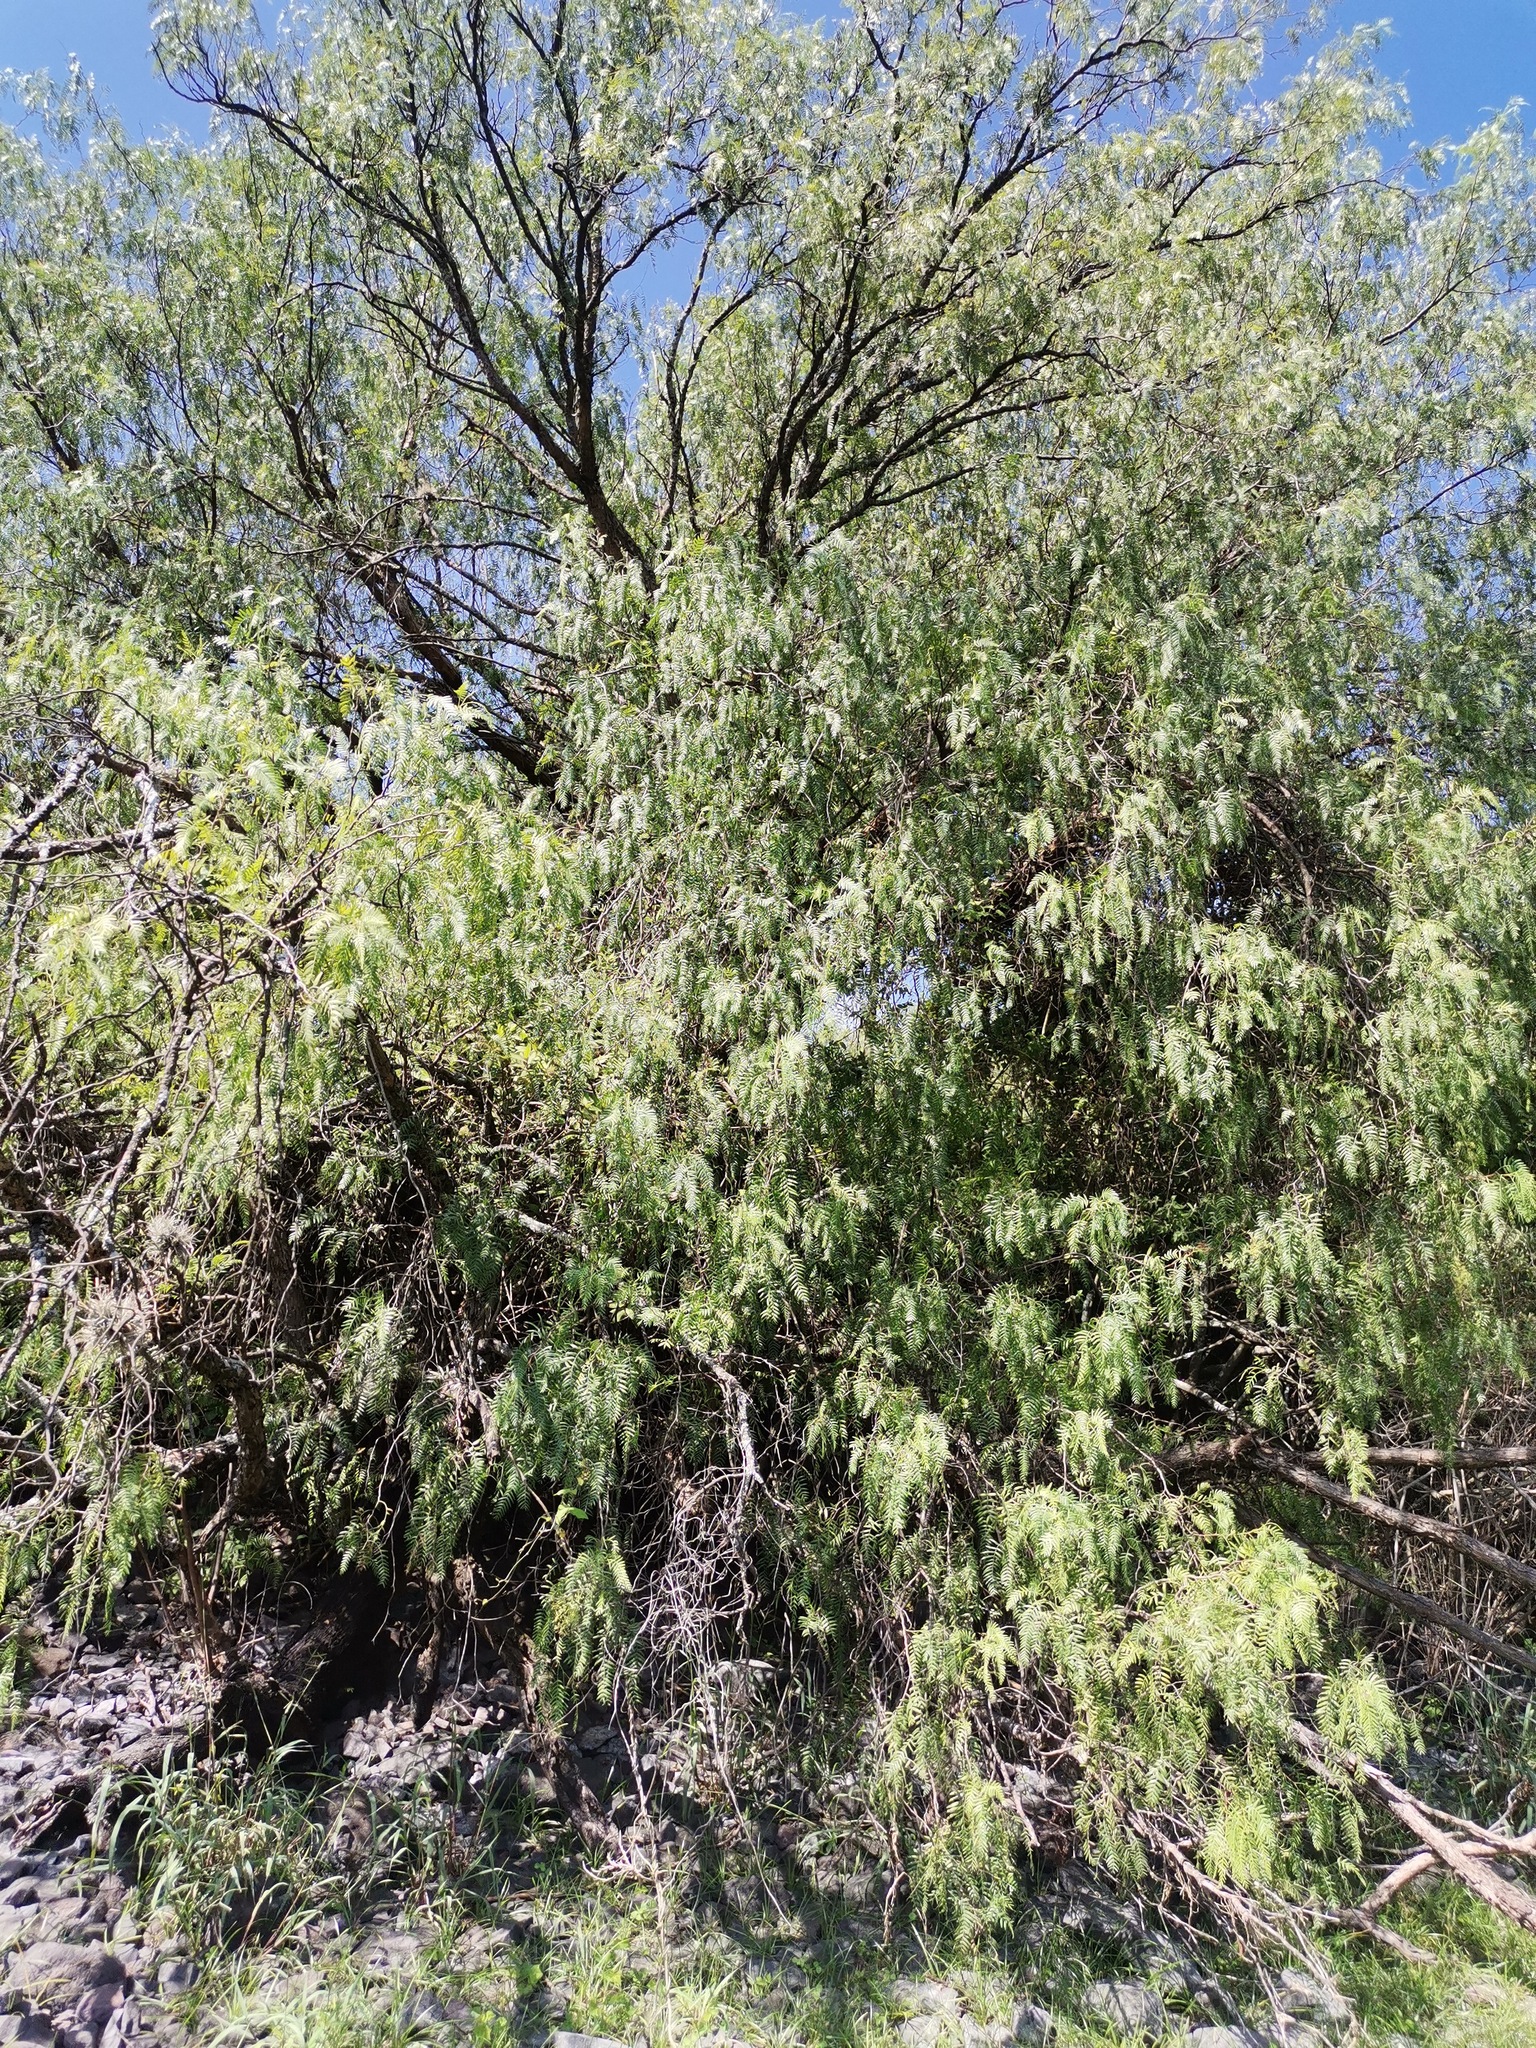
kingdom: Plantae
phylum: Tracheophyta
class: Magnoliopsida
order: Sapindales
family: Anacardiaceae
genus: Schinus
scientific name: Schinus molle
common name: Peruvian peppertree
